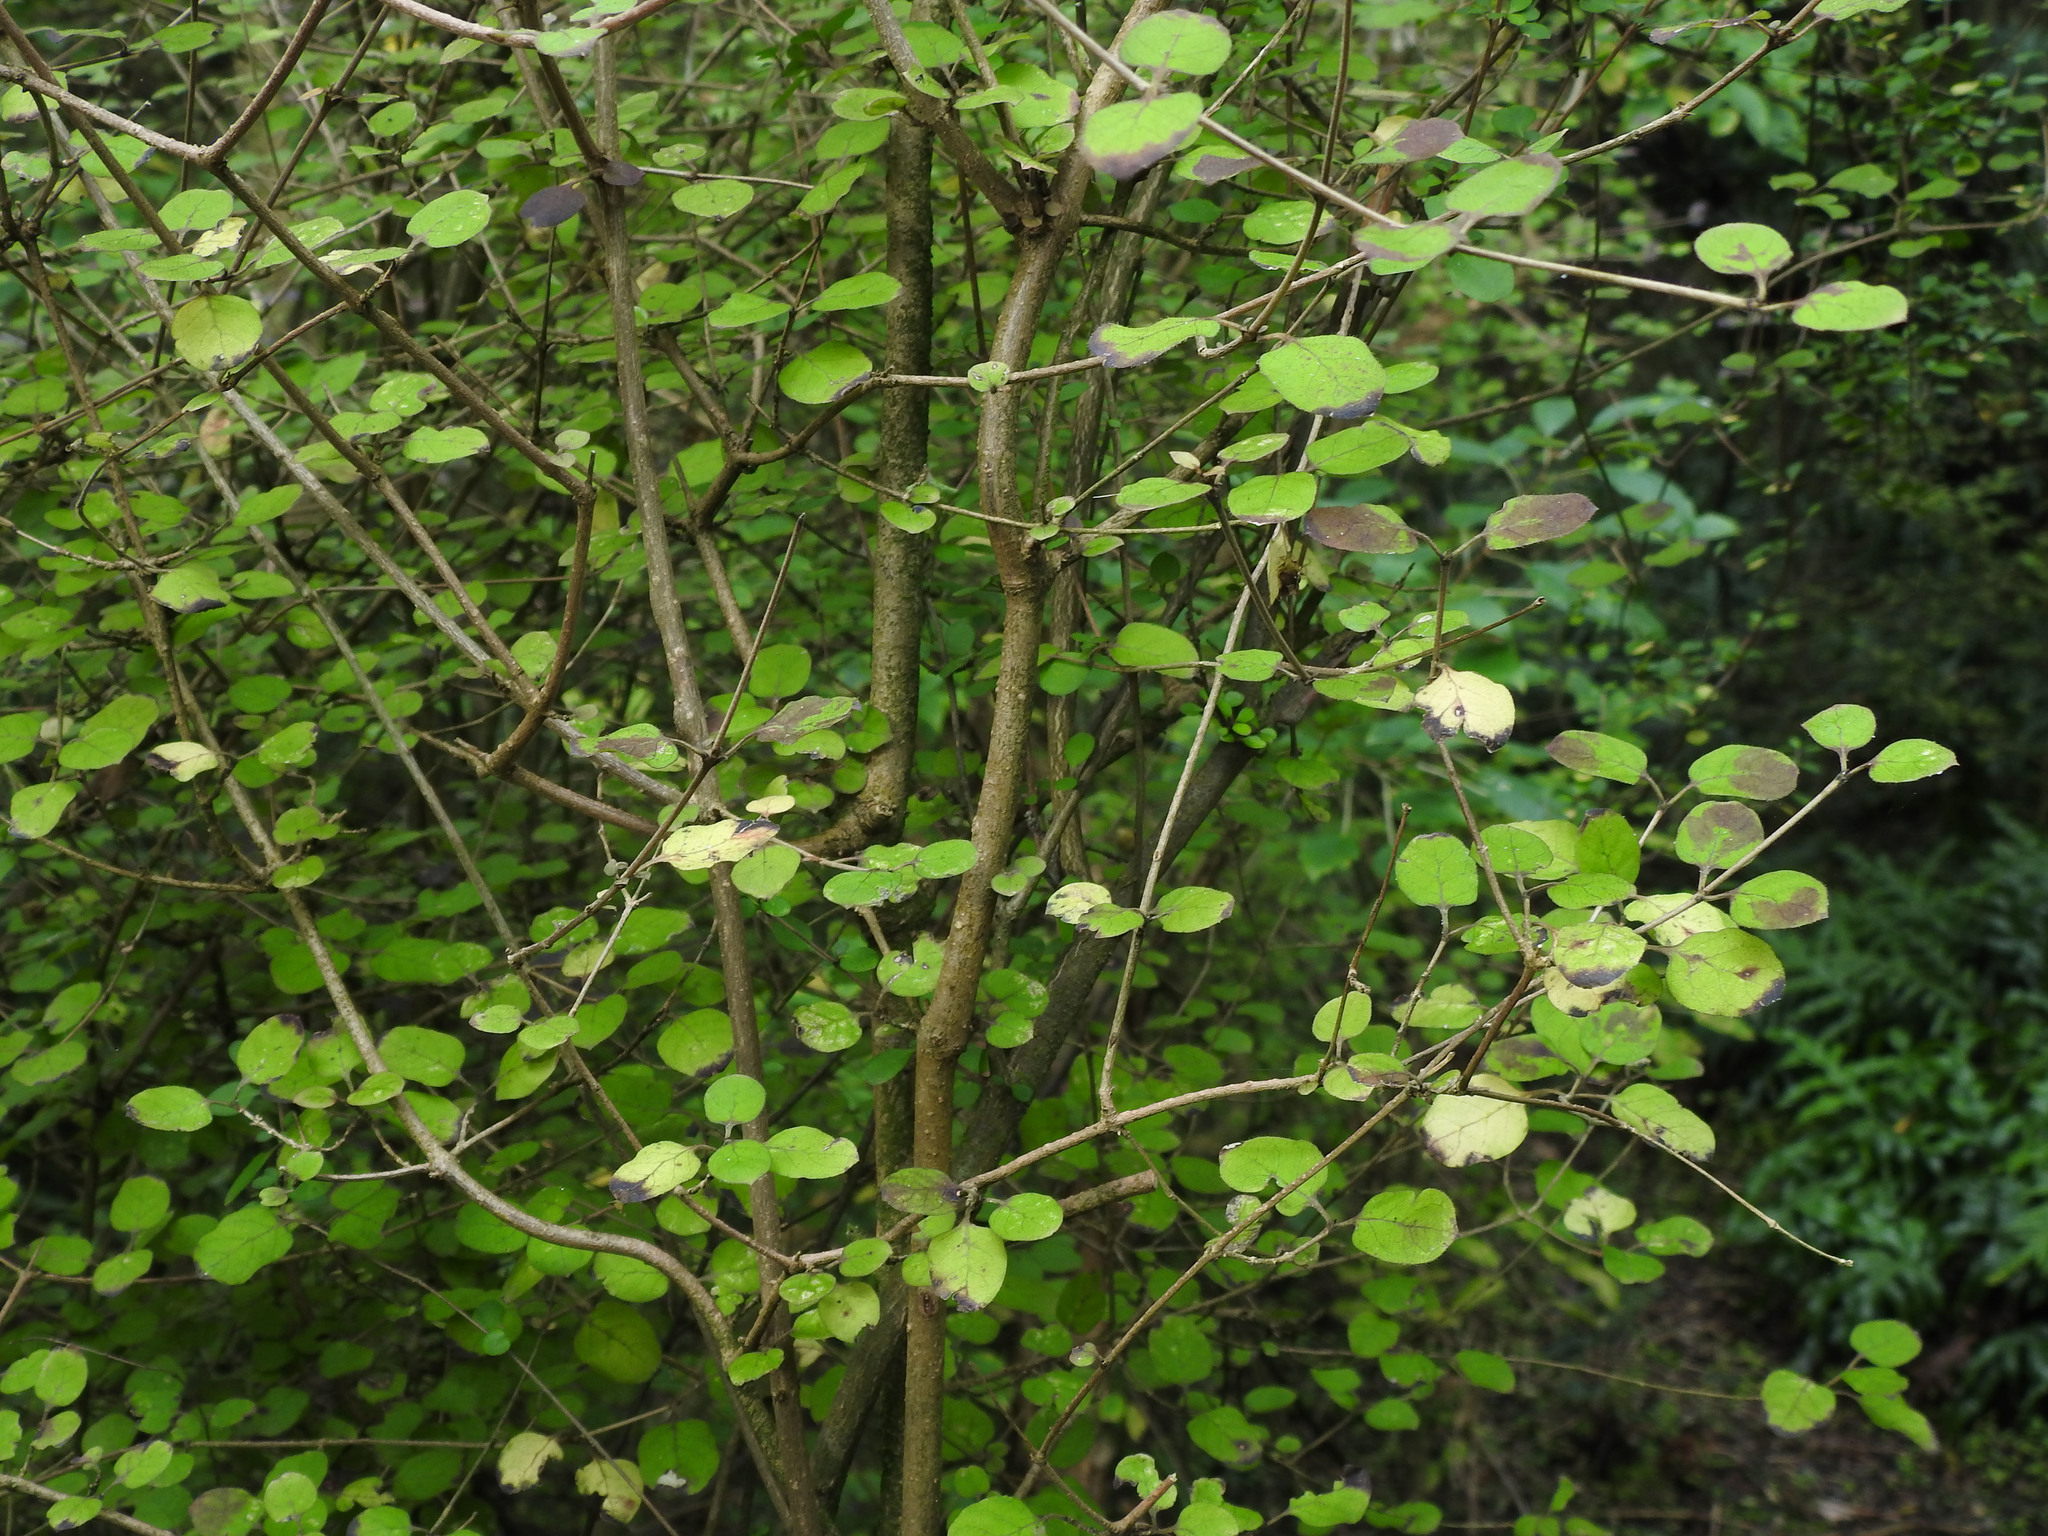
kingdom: Plantae
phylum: Tracheophyta
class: Magnoliopsida
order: Gentianales
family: Rubiaceae
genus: Coprosma
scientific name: Coprosma rotundifolia
